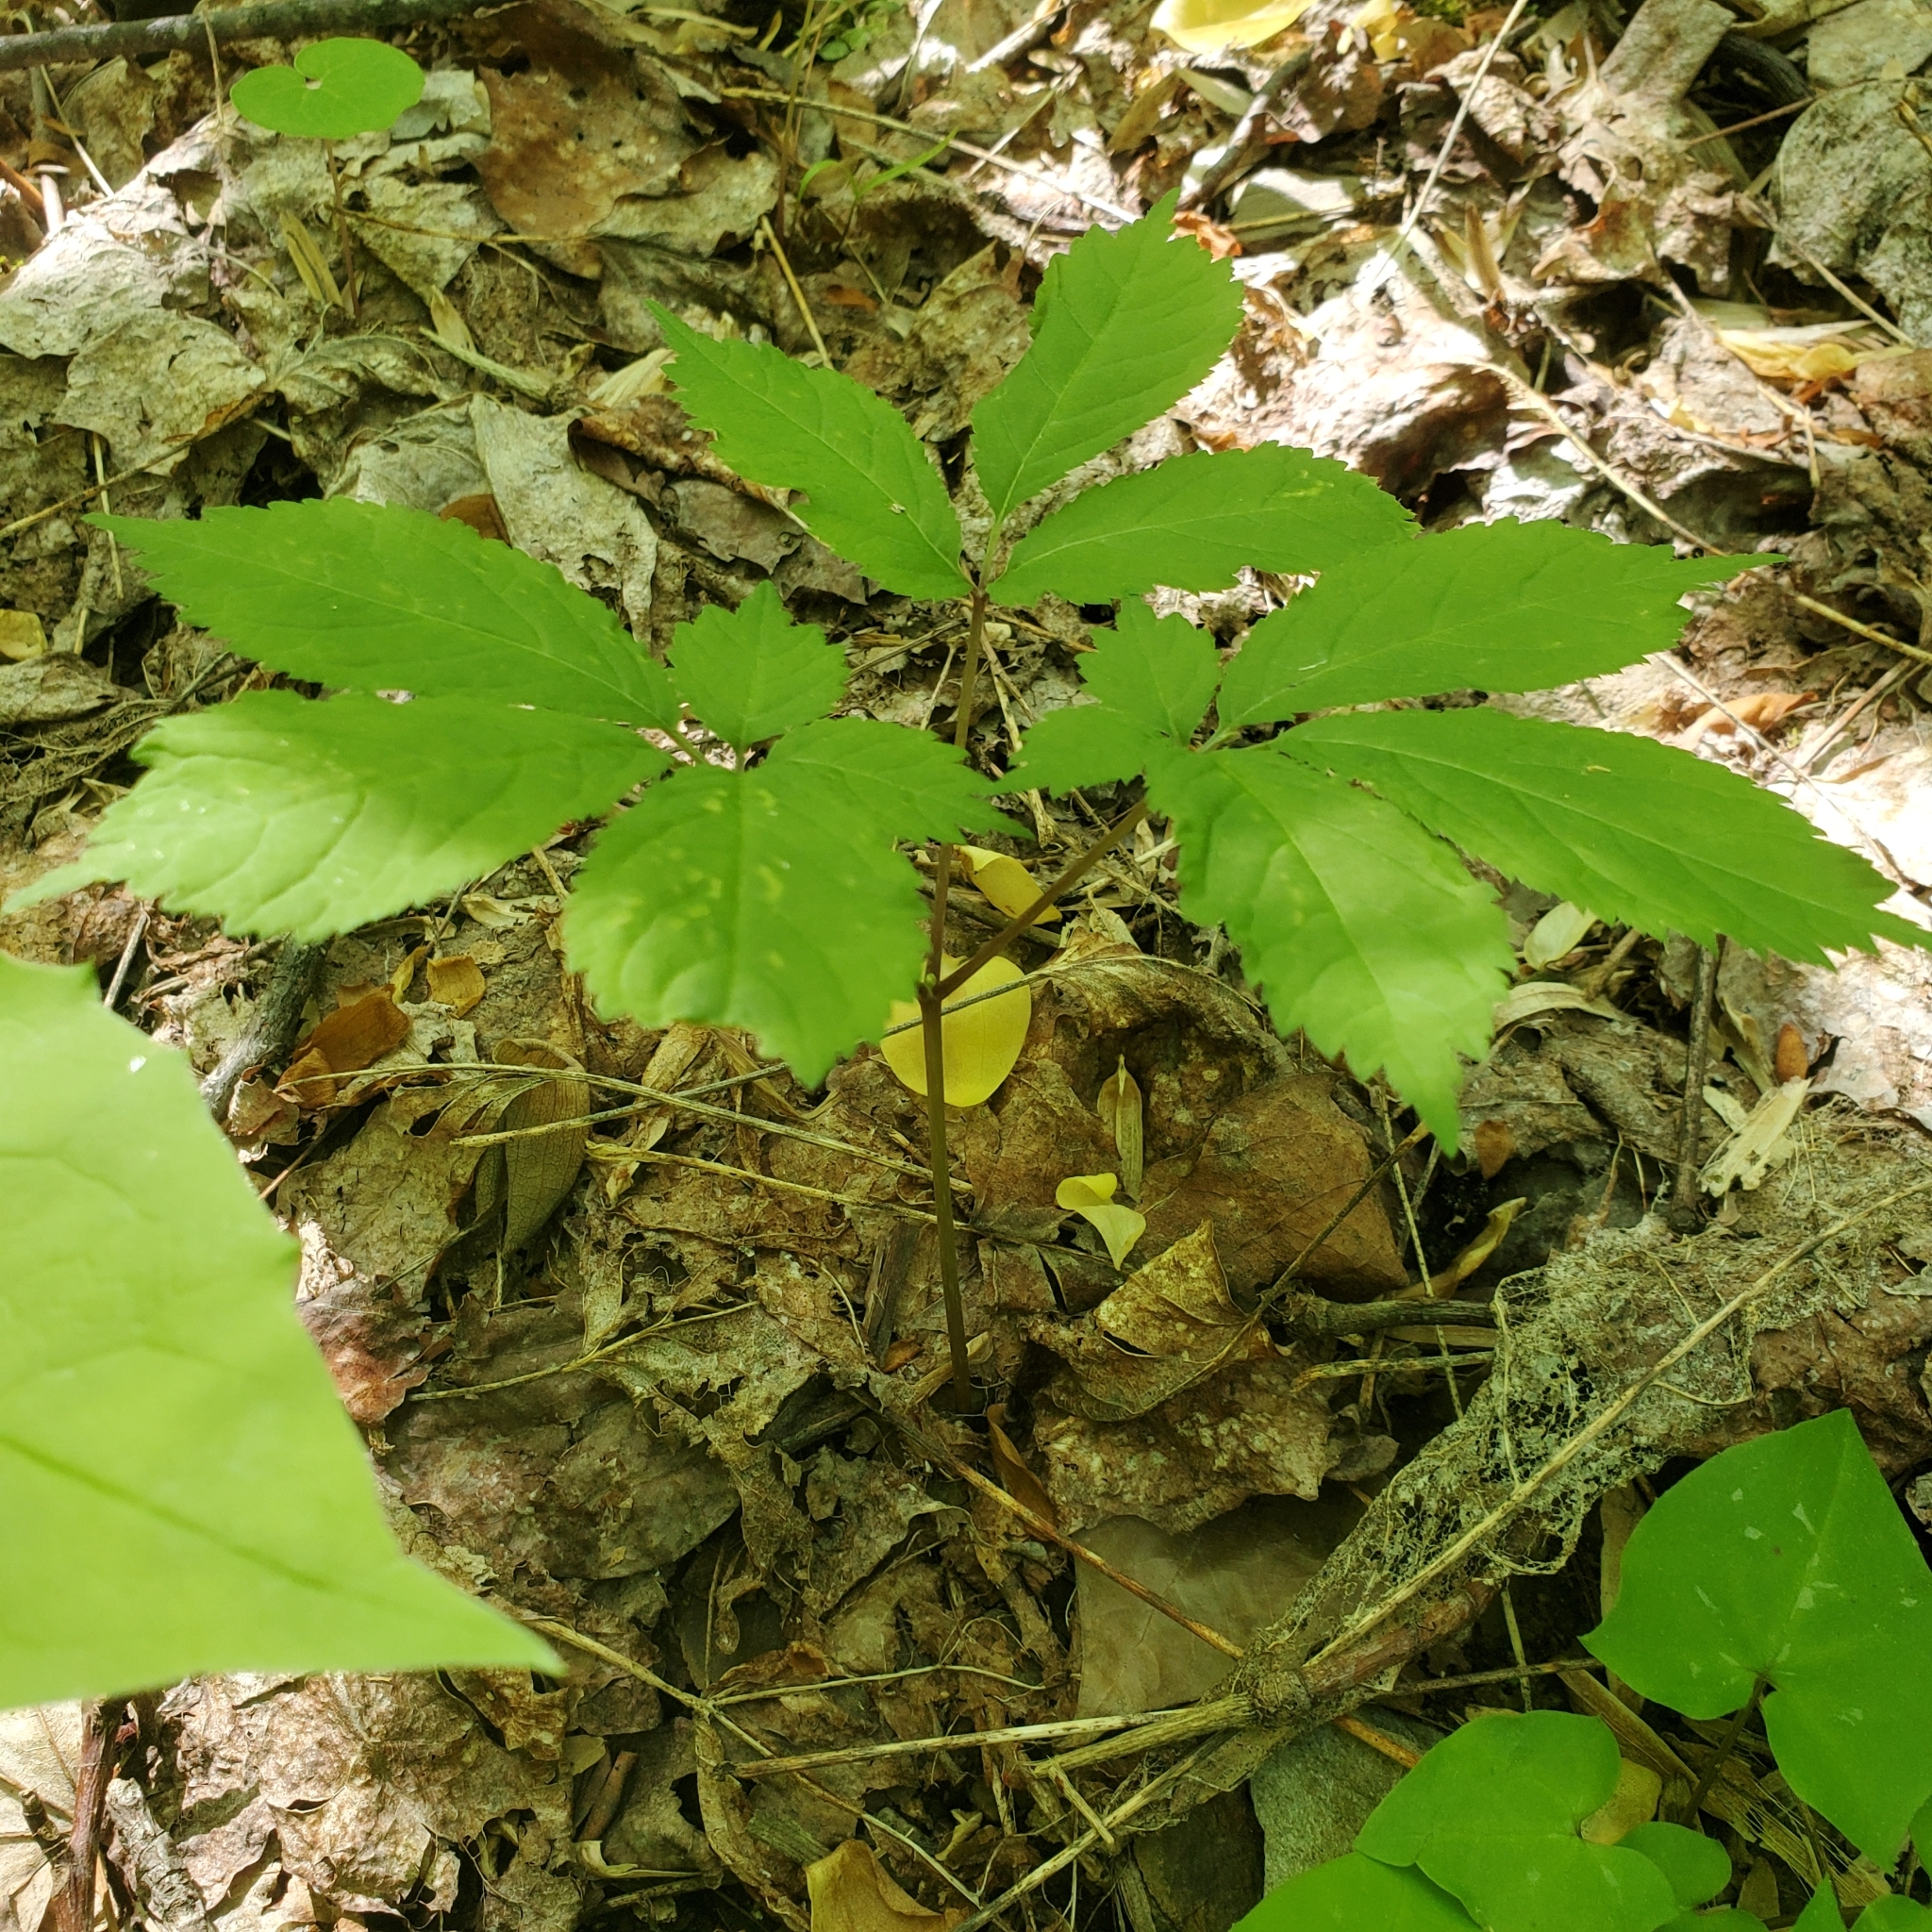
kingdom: Plantae
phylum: Tracheophyta
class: Magnoliopsida
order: Apiales
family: Araliaceae
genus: Panax
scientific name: Panax quinquefolius
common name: American ginseng
